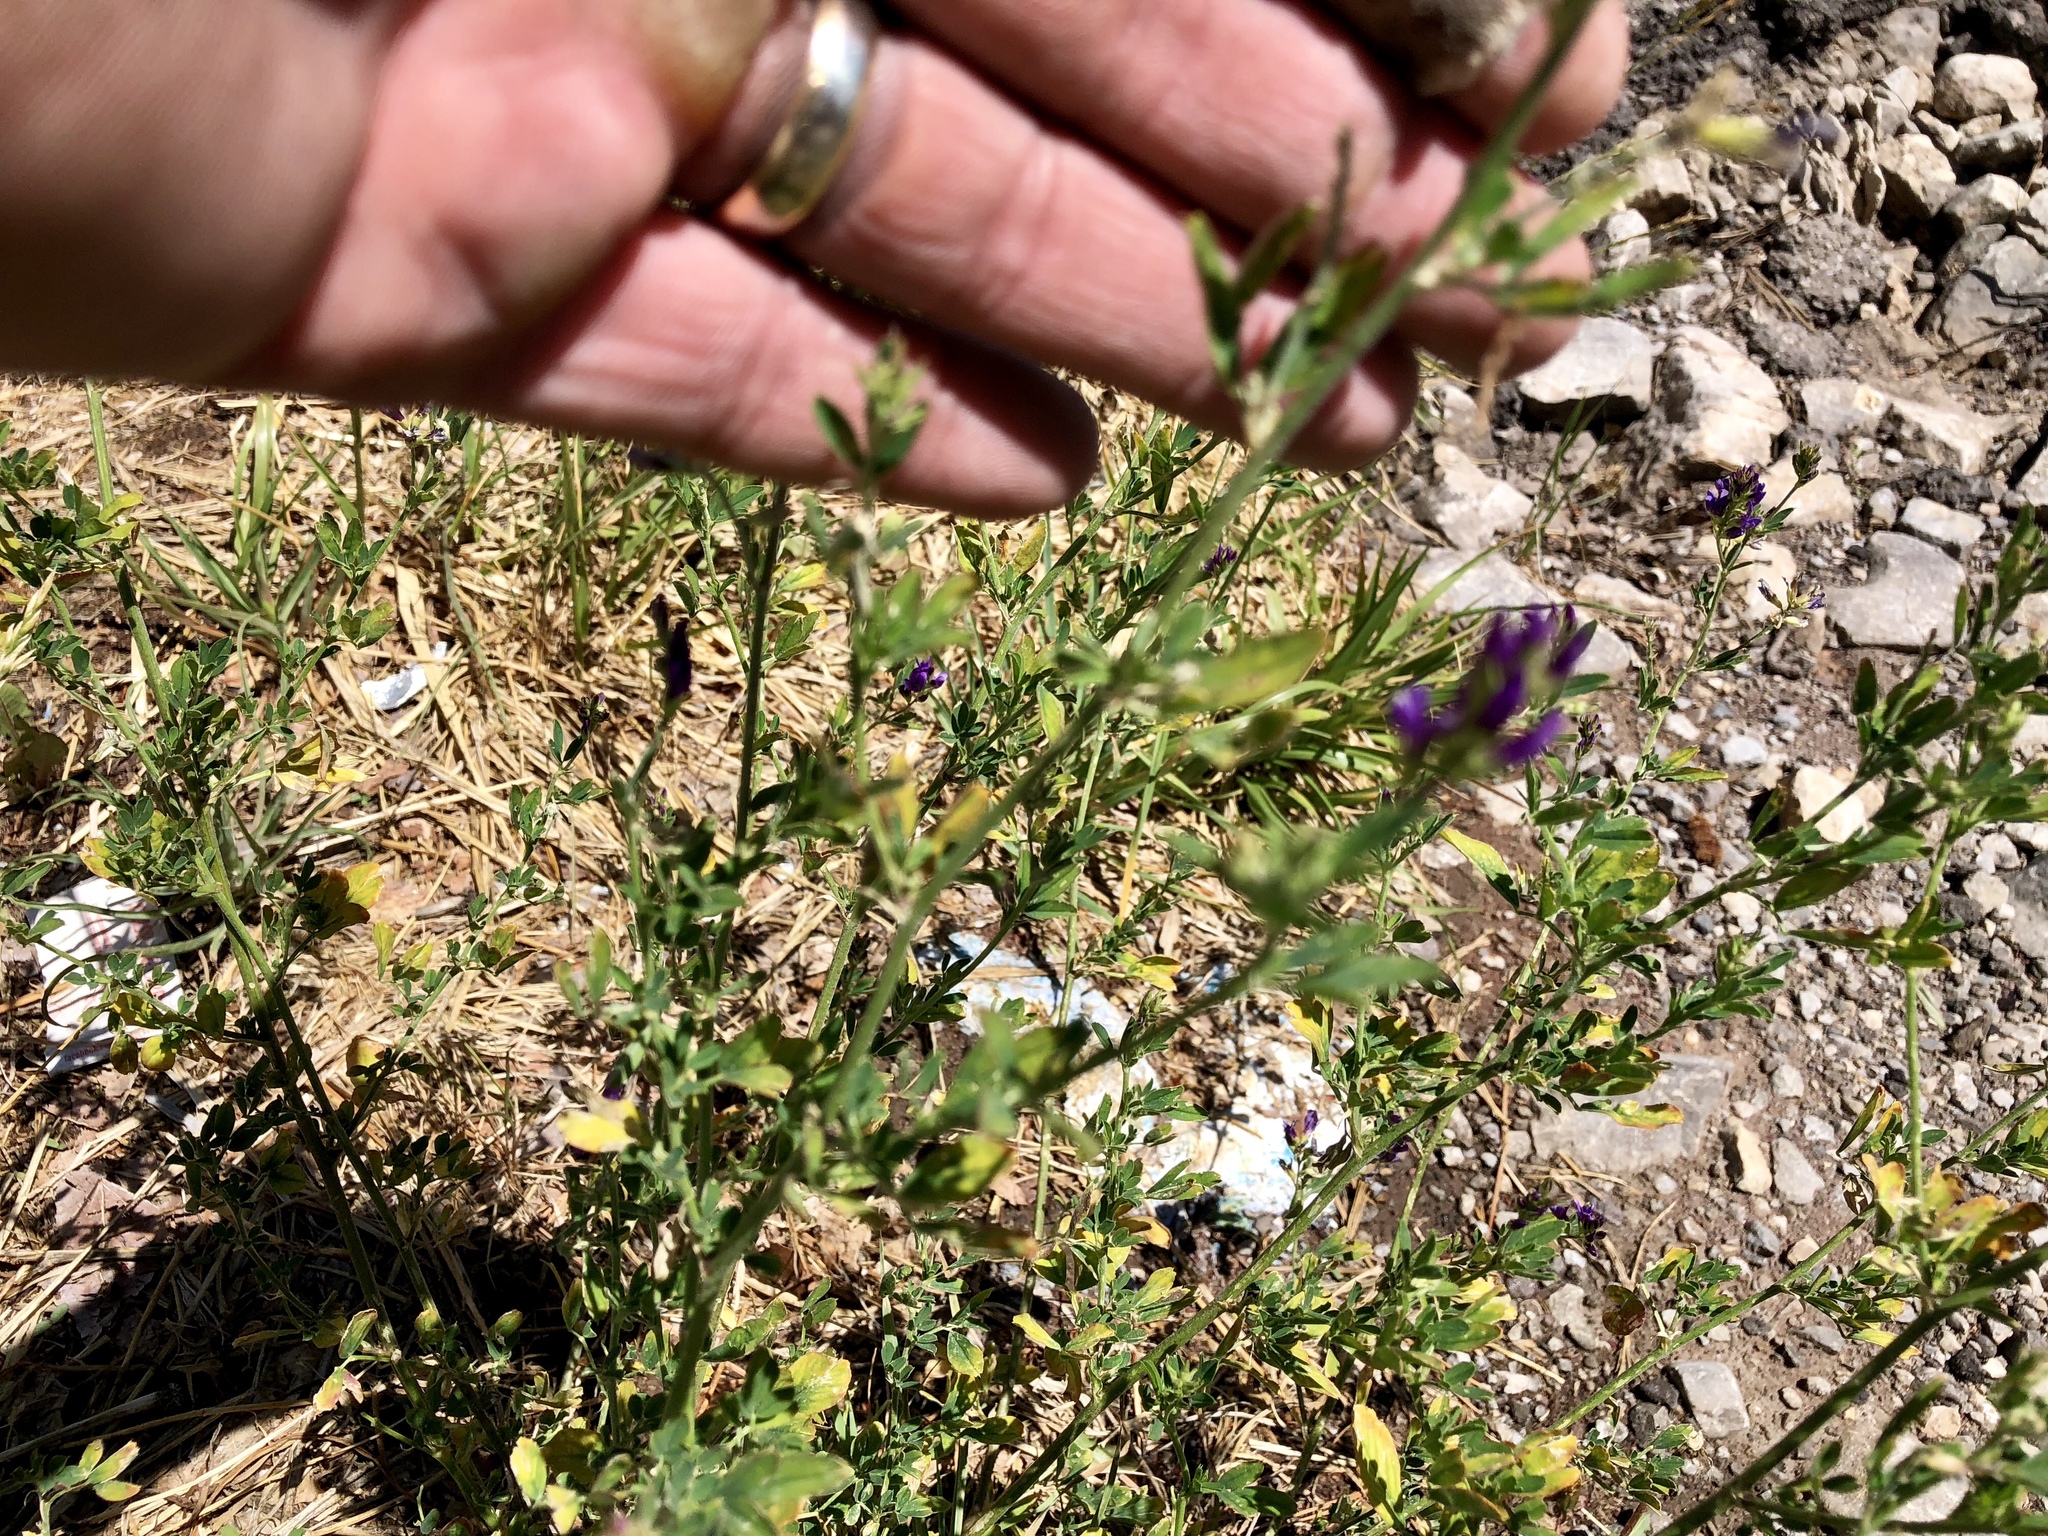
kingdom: Plantae
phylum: Tracheophyta
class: Magnoliopsida
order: Fabales
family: Fabaceae
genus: Medicago
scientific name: Medicago sativa
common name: Alfalfa
